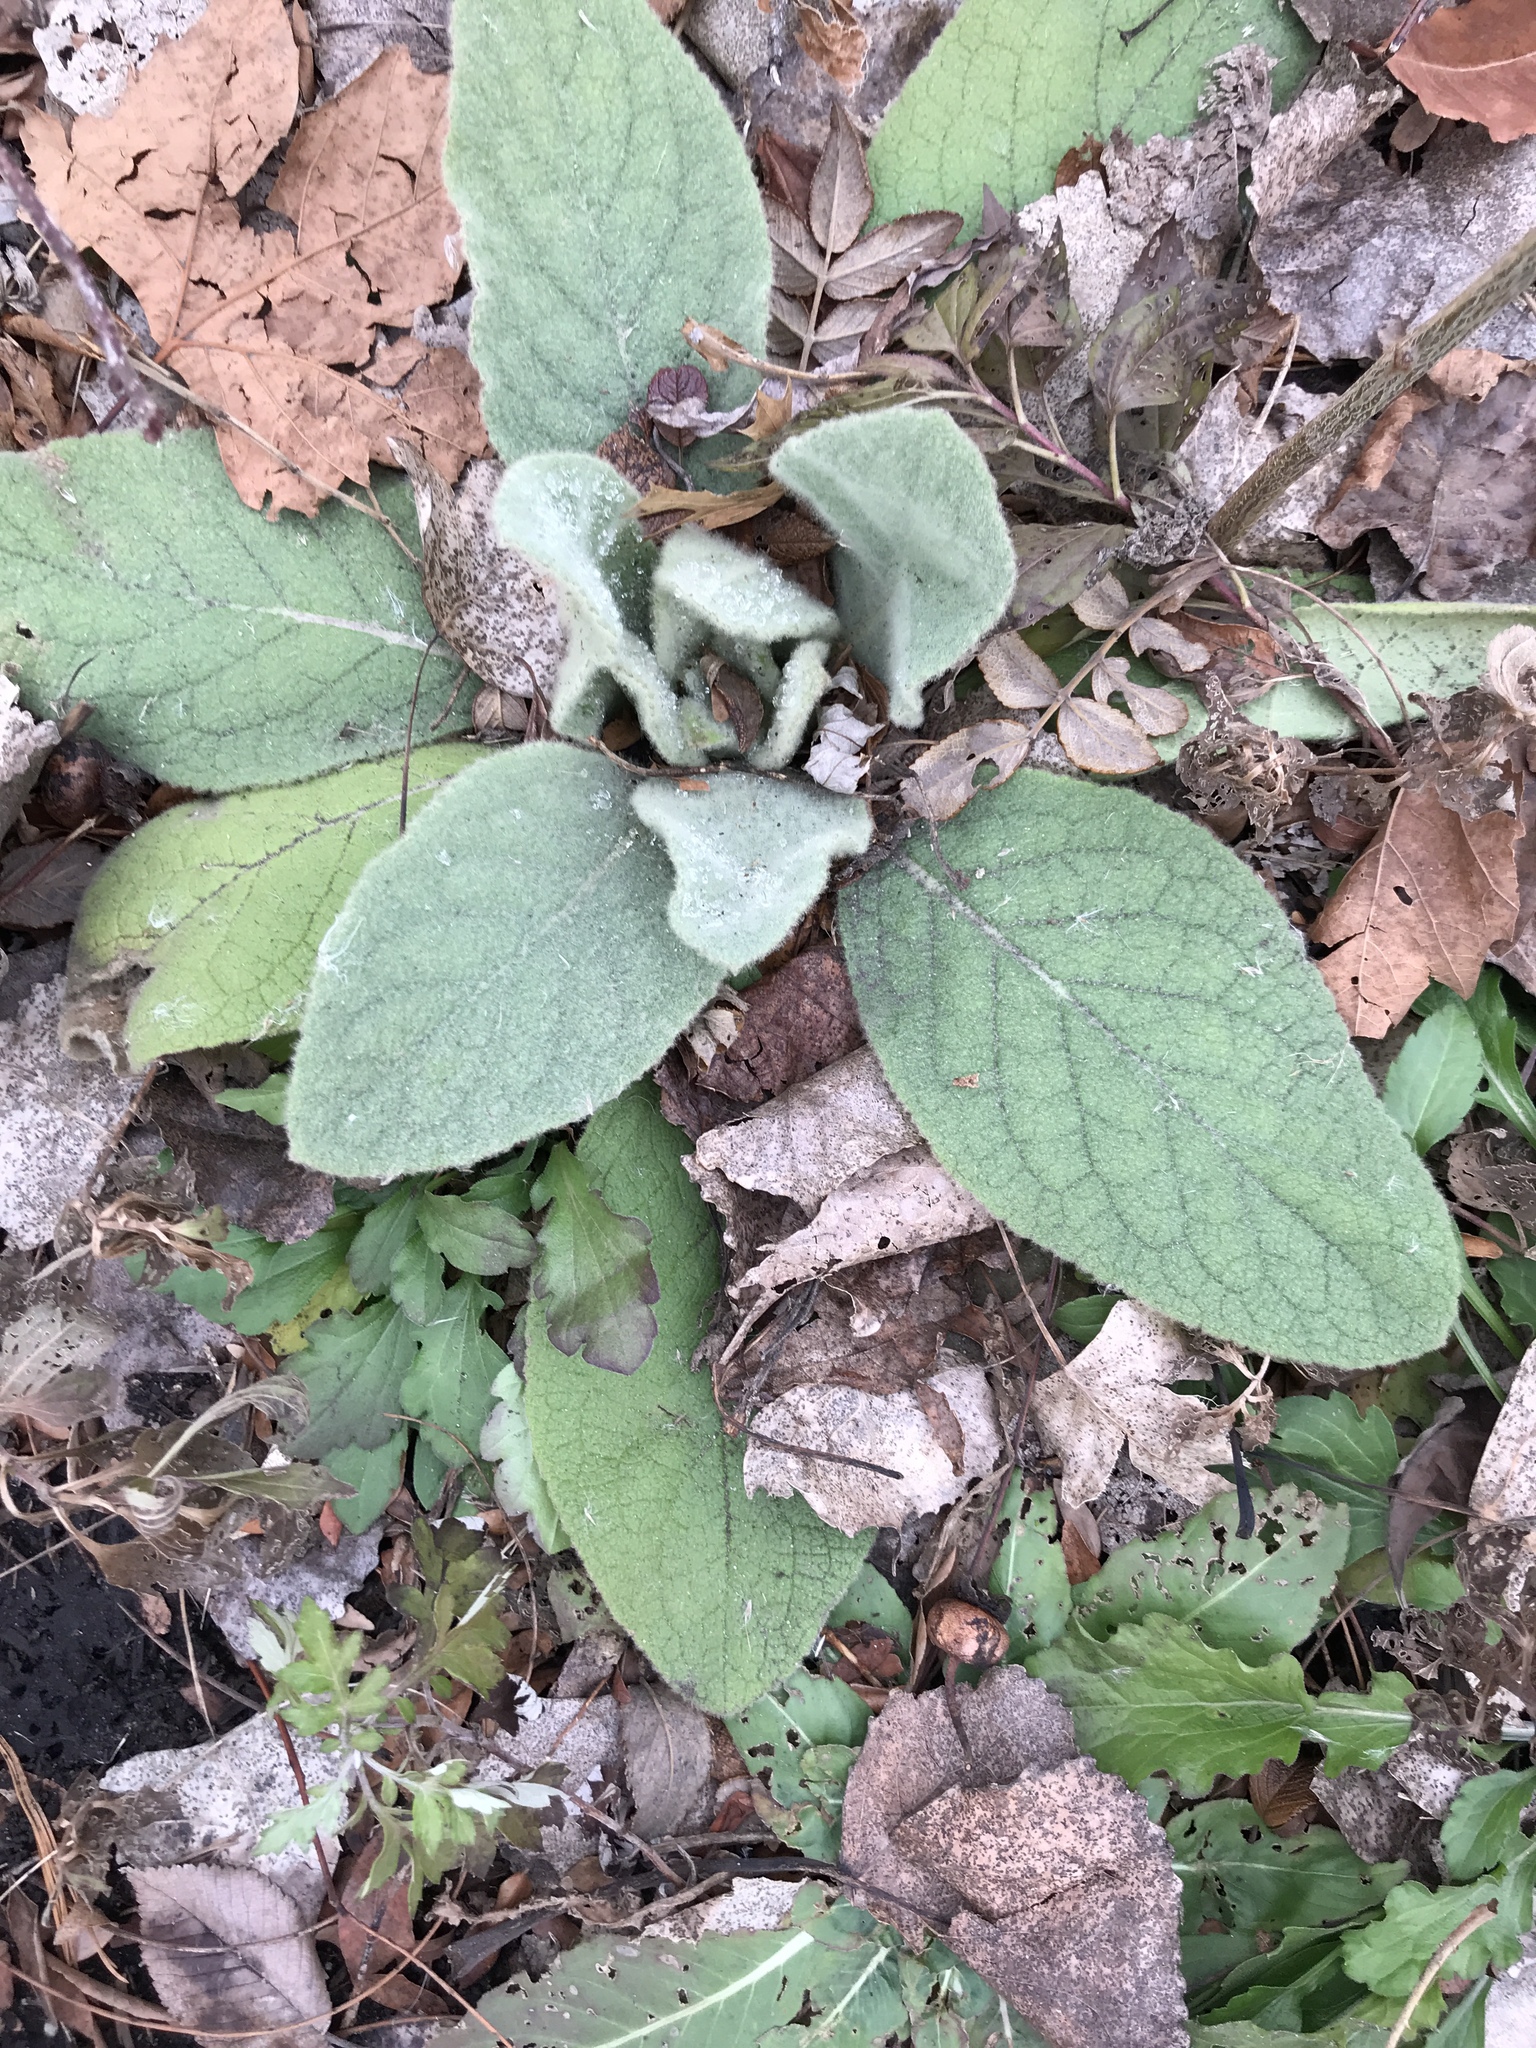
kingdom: Plantae
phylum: Tracheophyta
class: Magnoliopsida
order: Lamiales
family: Scrophulariaceae
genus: Verbascum
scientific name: Verbascum thapsus
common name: Common mullein
